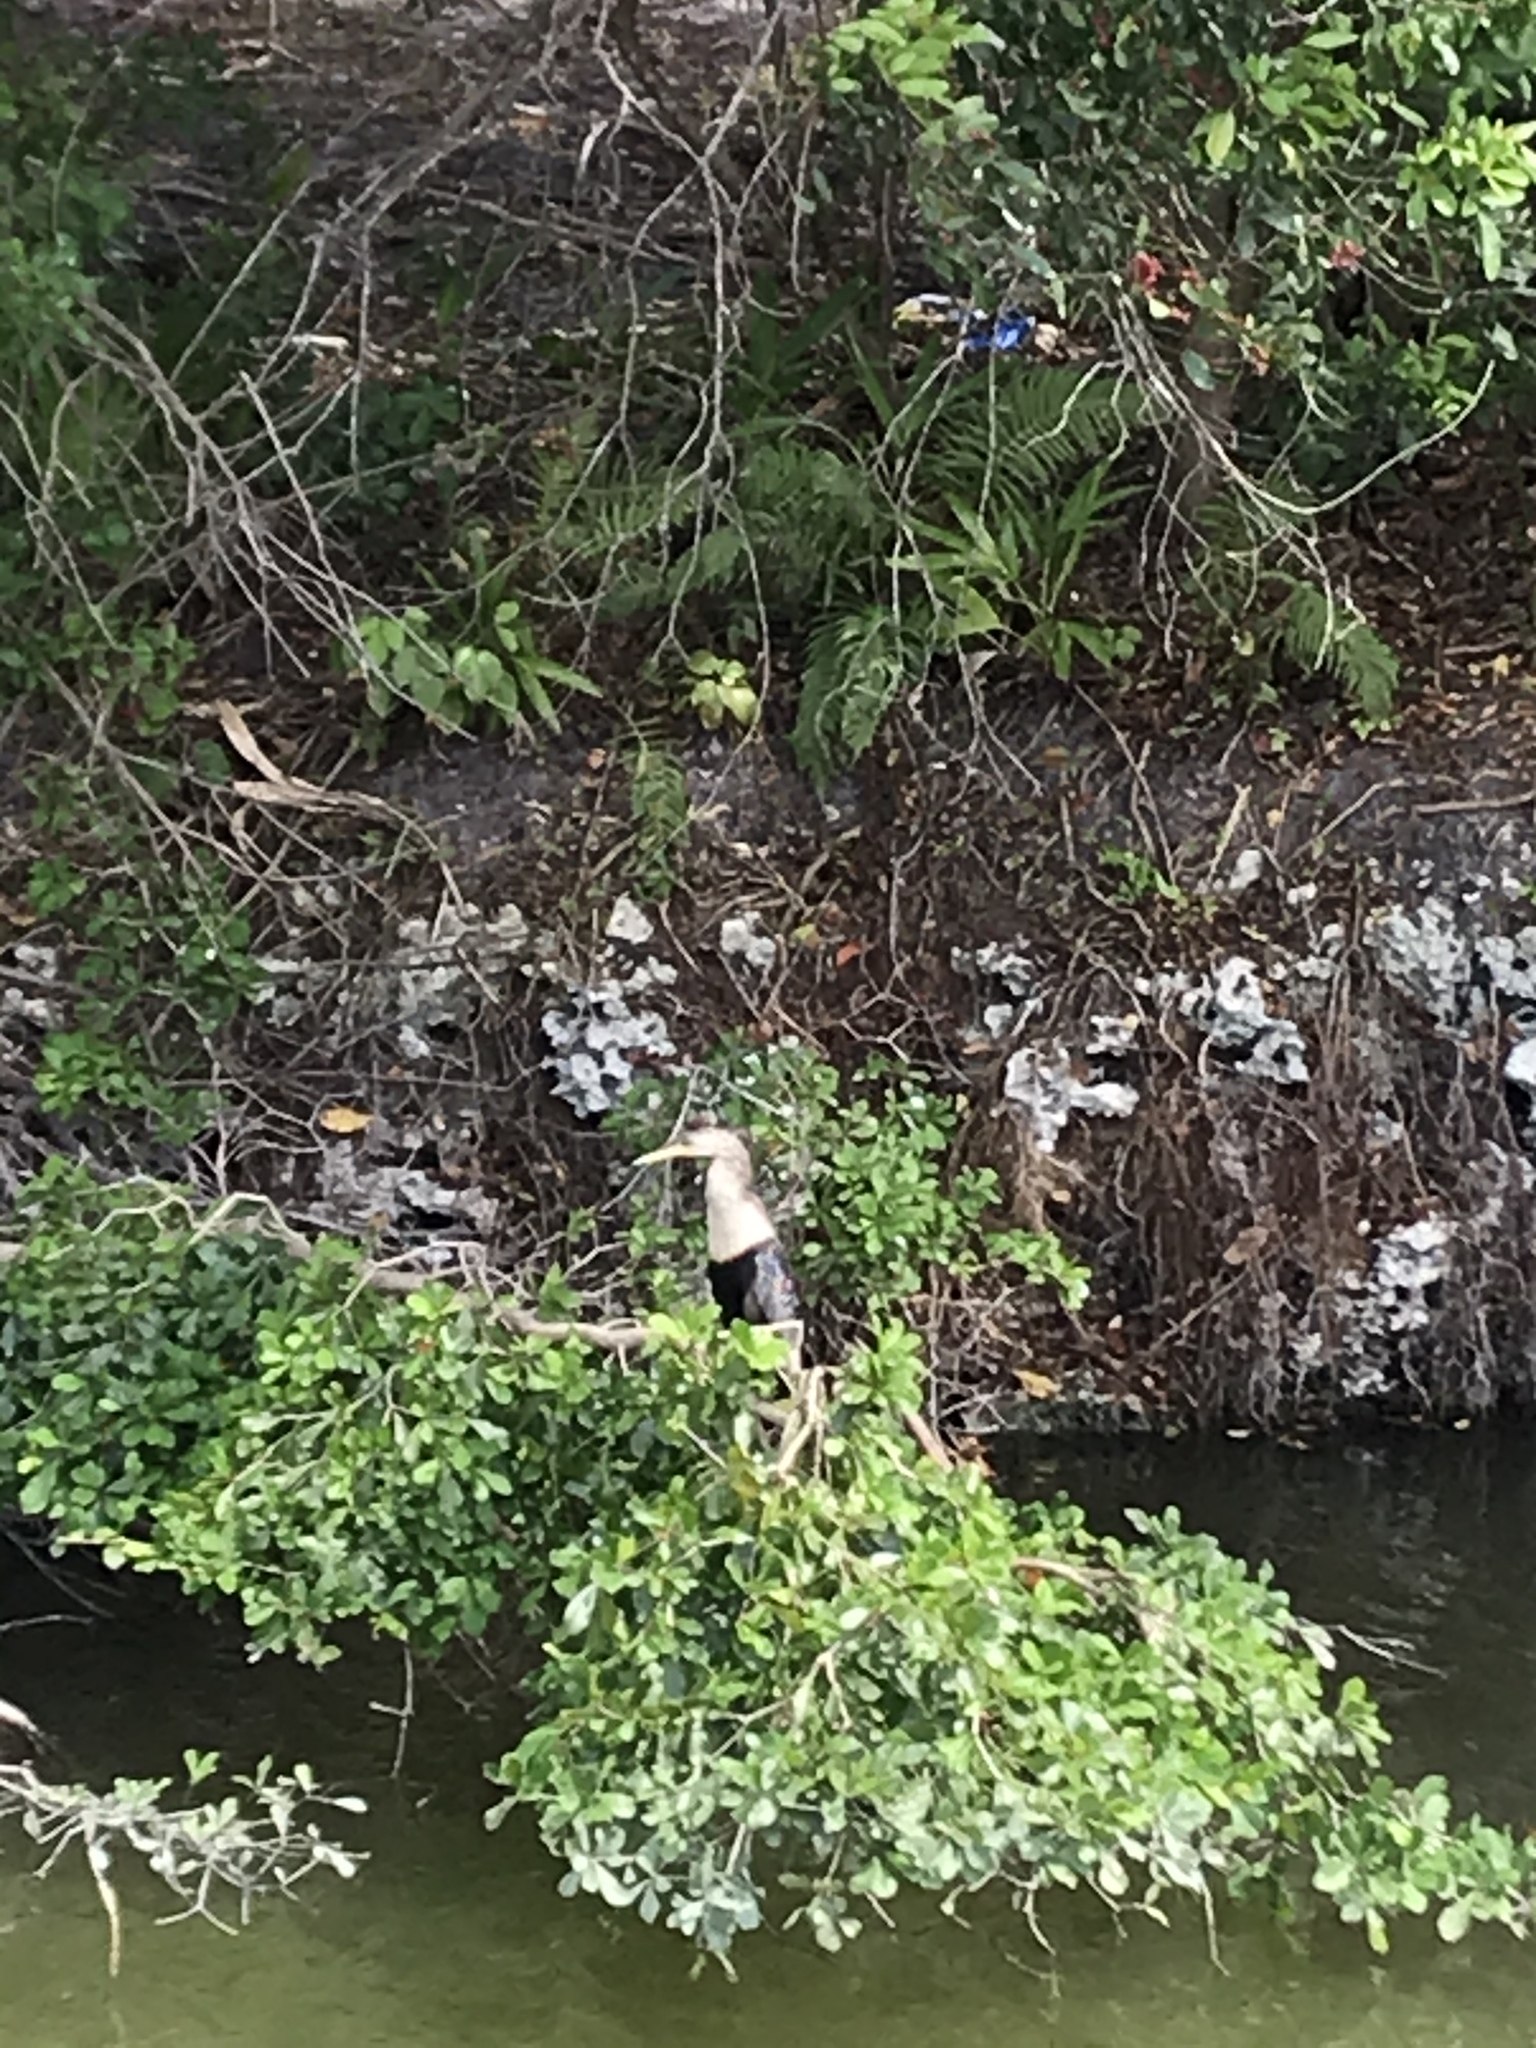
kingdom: Animalia
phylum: Chordata
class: Aves
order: Suliformes
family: Anhingidae
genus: Anhinga
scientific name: Anhinga anhinga
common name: Anhinga
